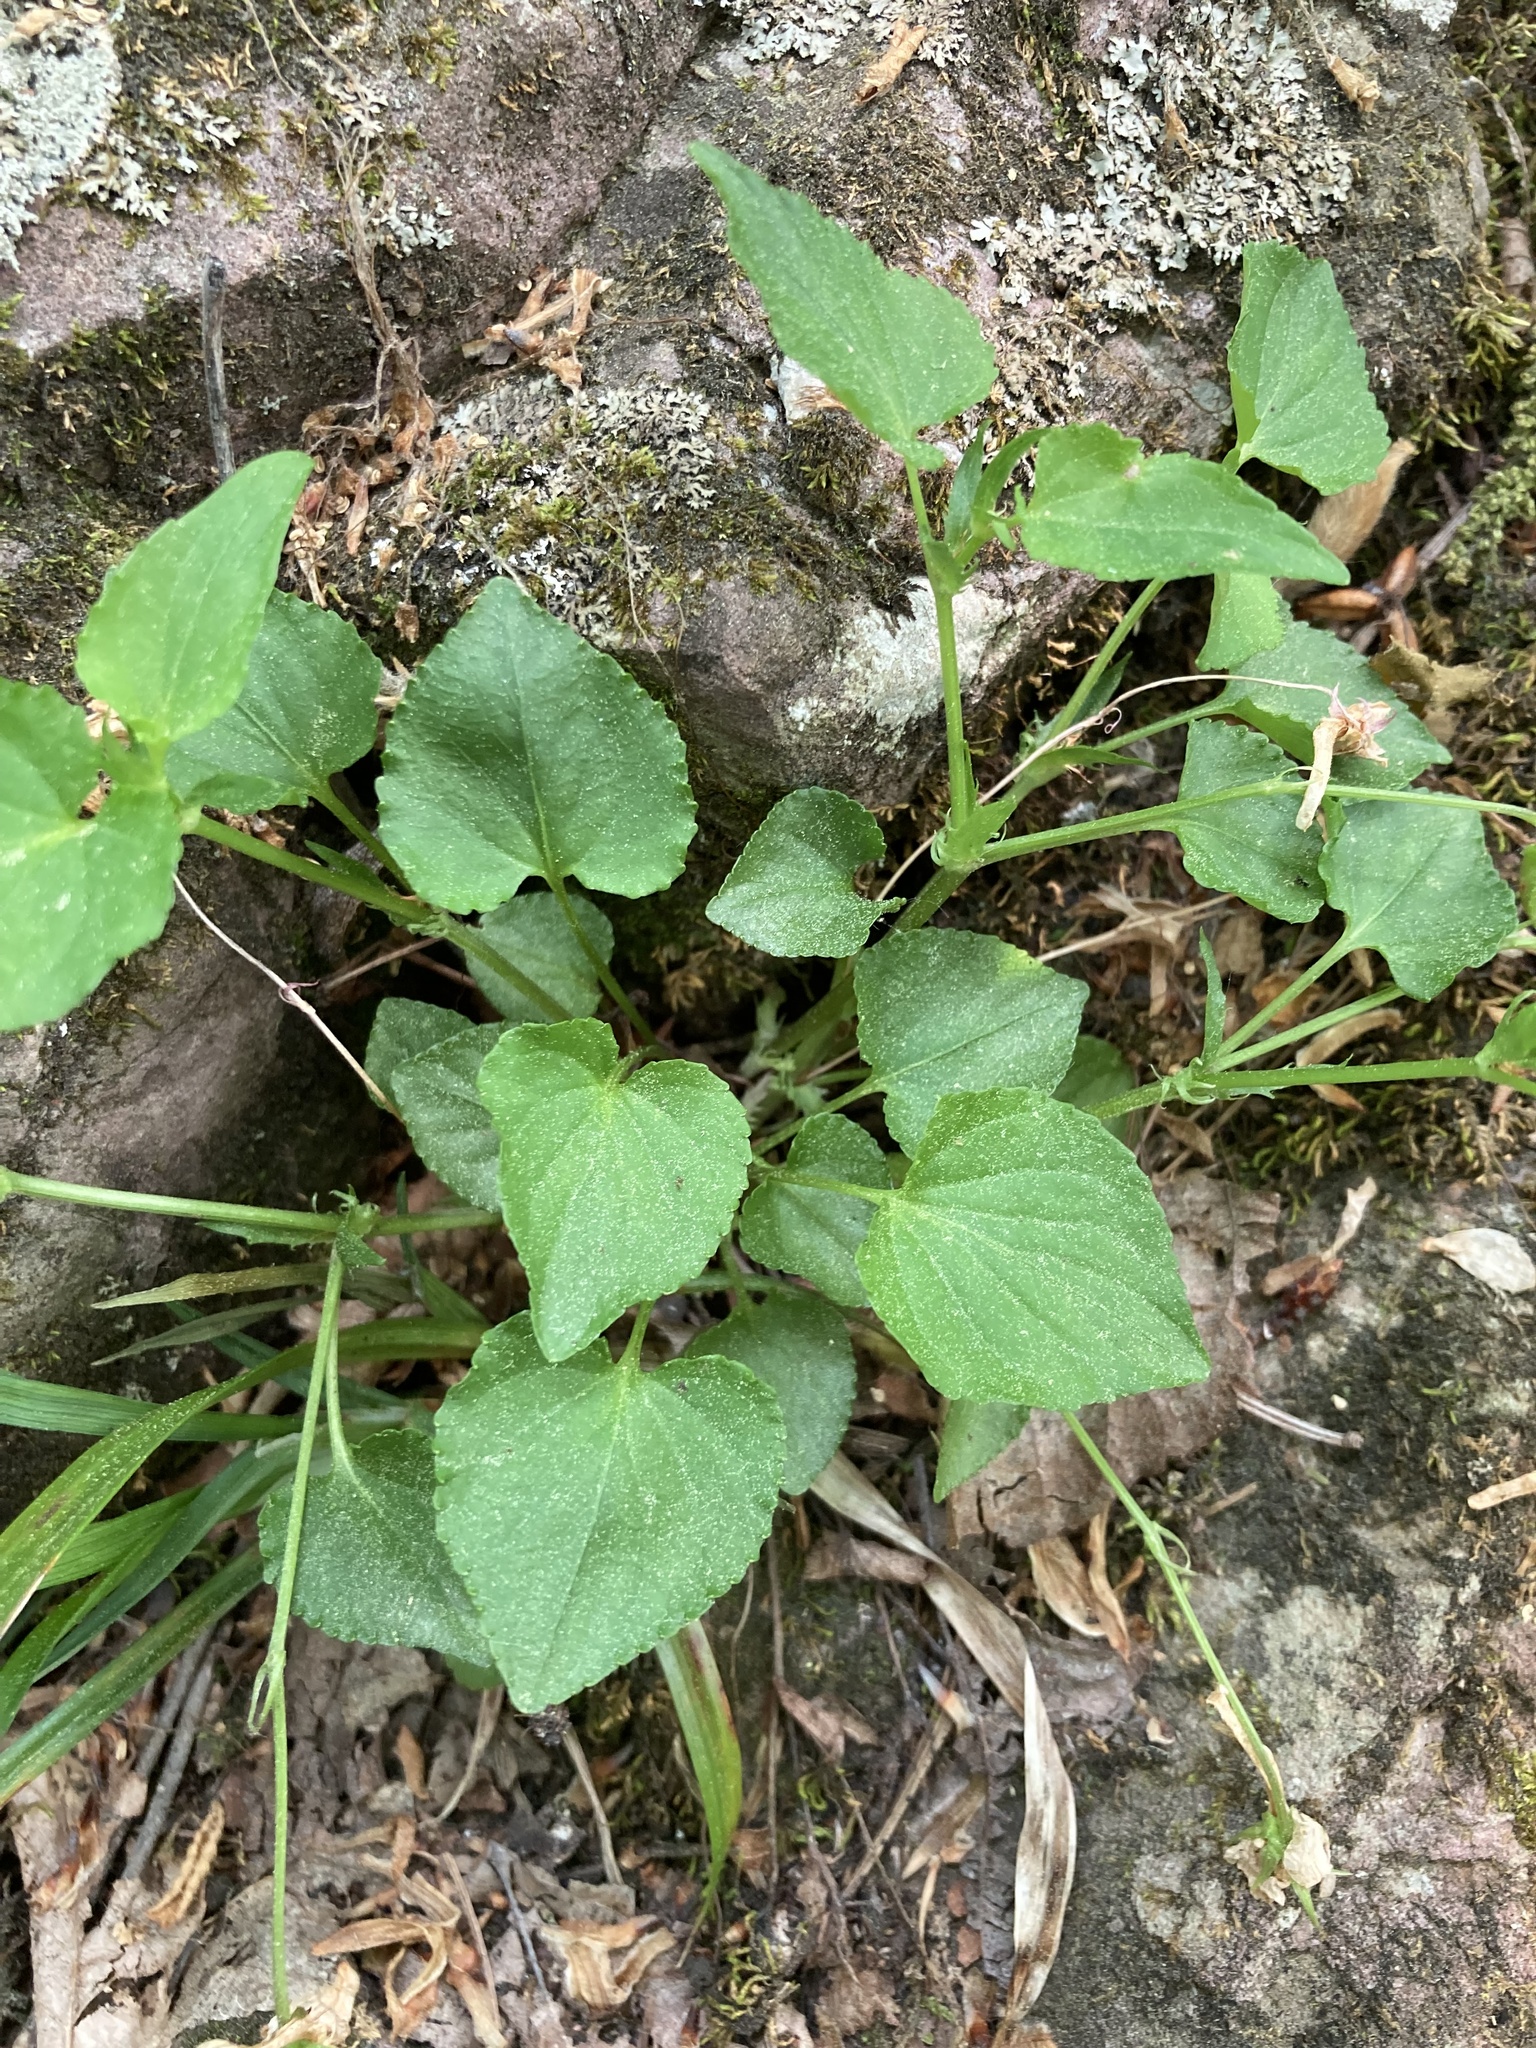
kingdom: Plantae
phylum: Tracheophyta
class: Magnoliopsida
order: Malpighiales
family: Violaceae
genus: Viola
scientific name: Viola rostrata
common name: Long-spur violet
